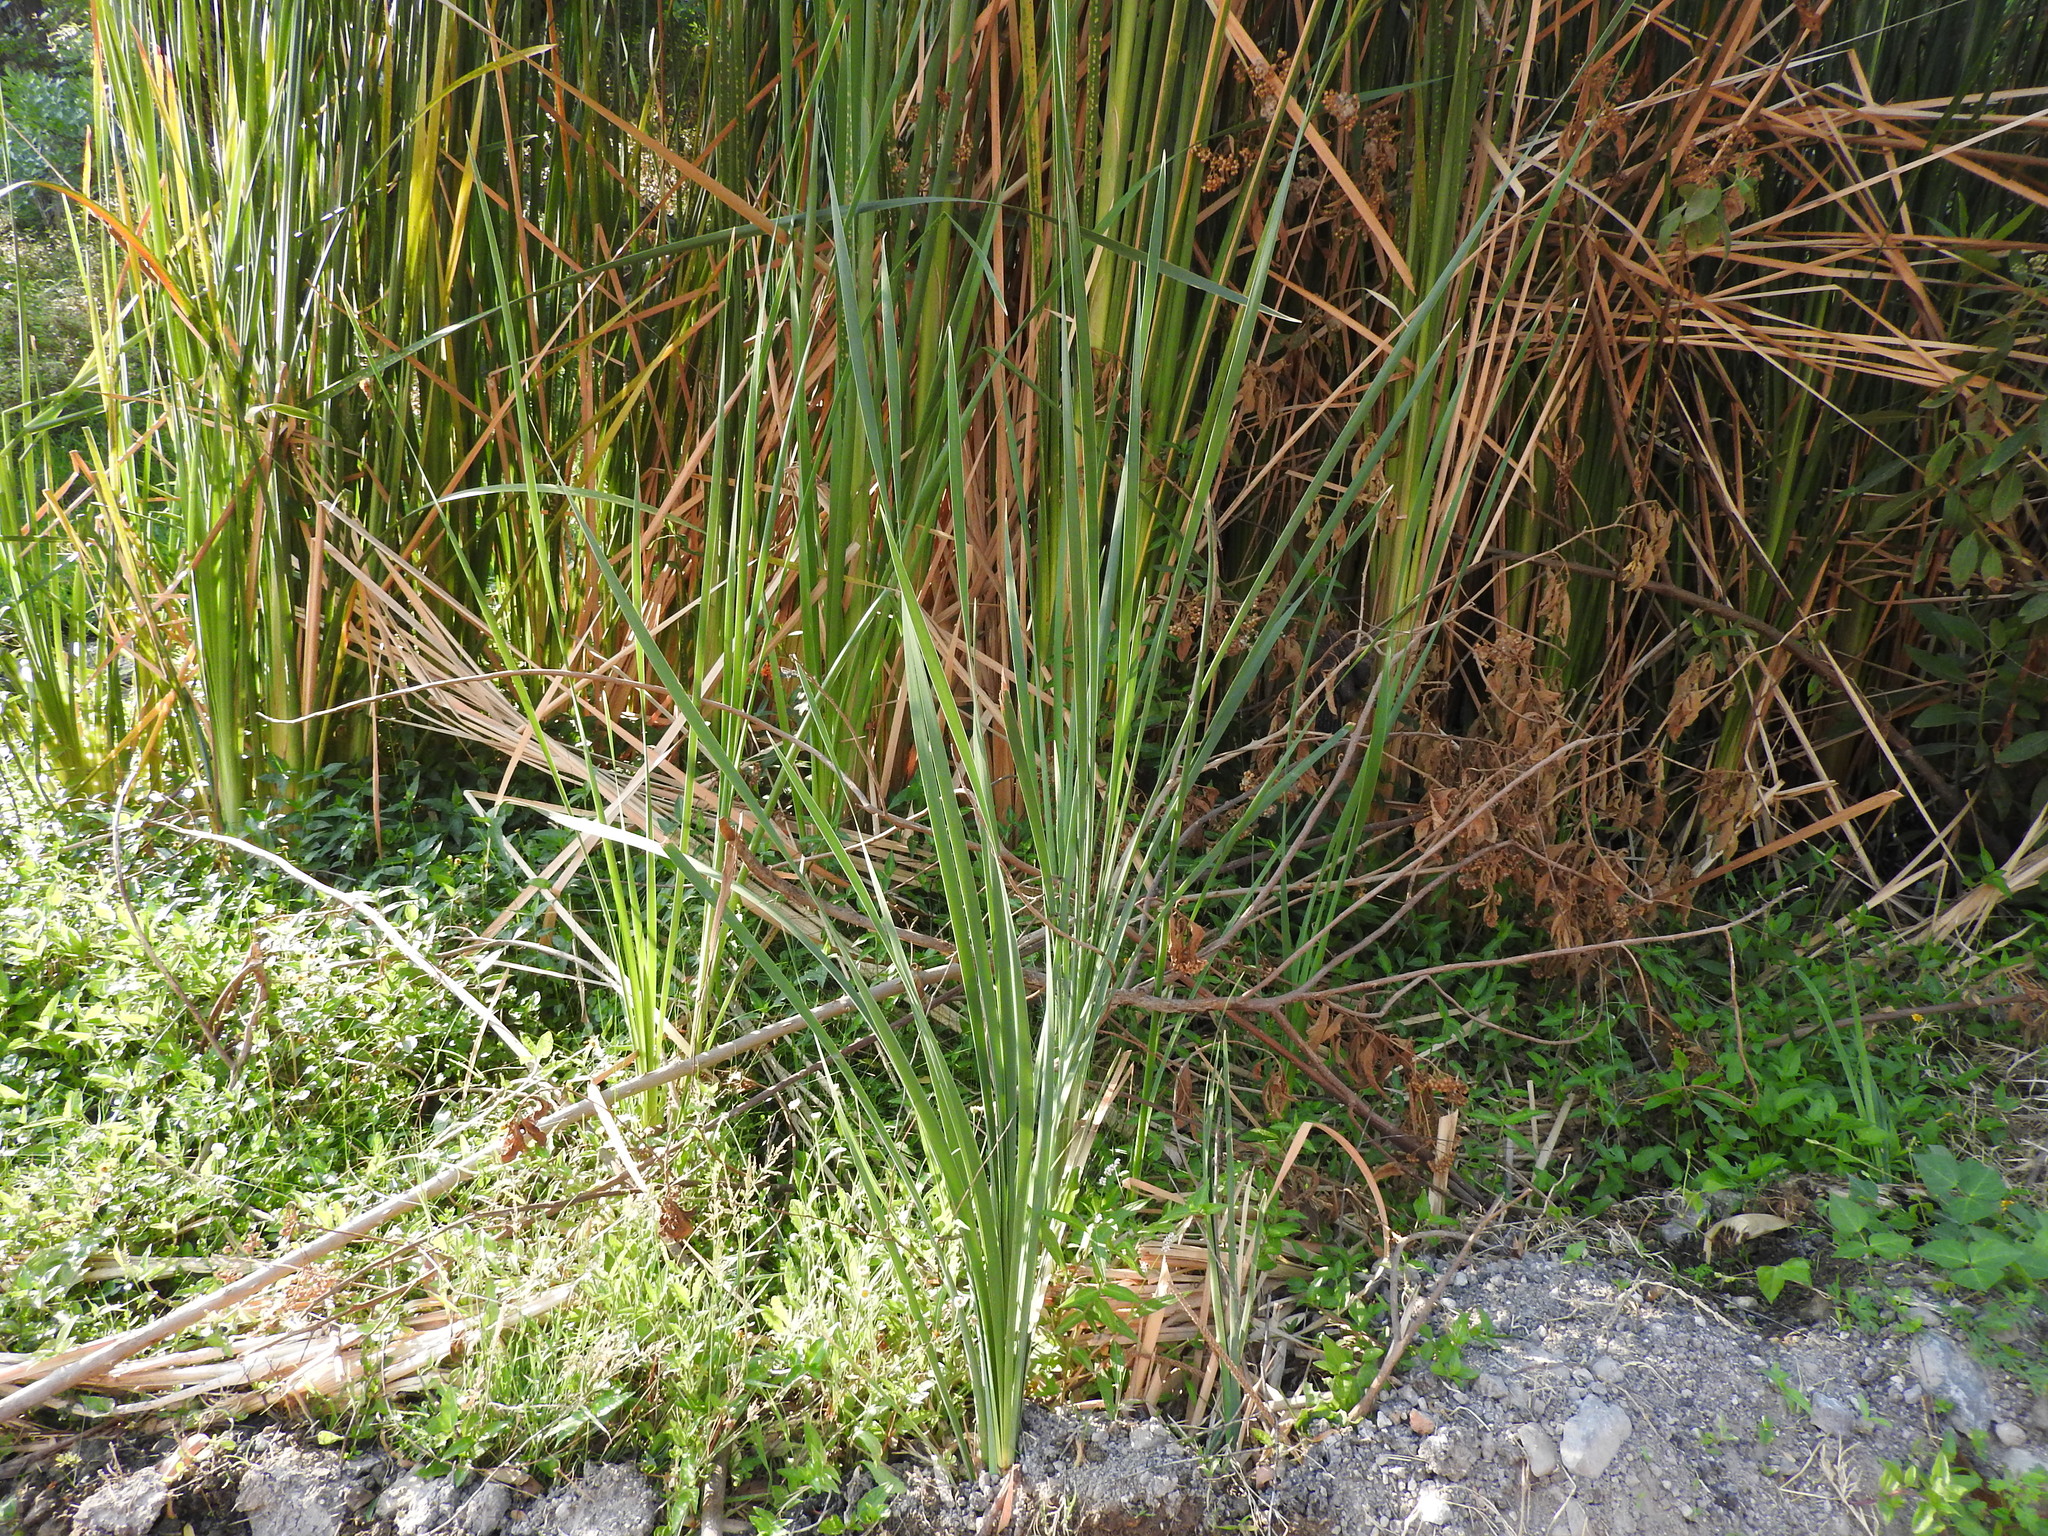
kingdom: Plantae
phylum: Tracheophyta
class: Liliopsida
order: Poales
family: Typhaceae
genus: Typha
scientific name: Typha domingensis
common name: Southern cattail
